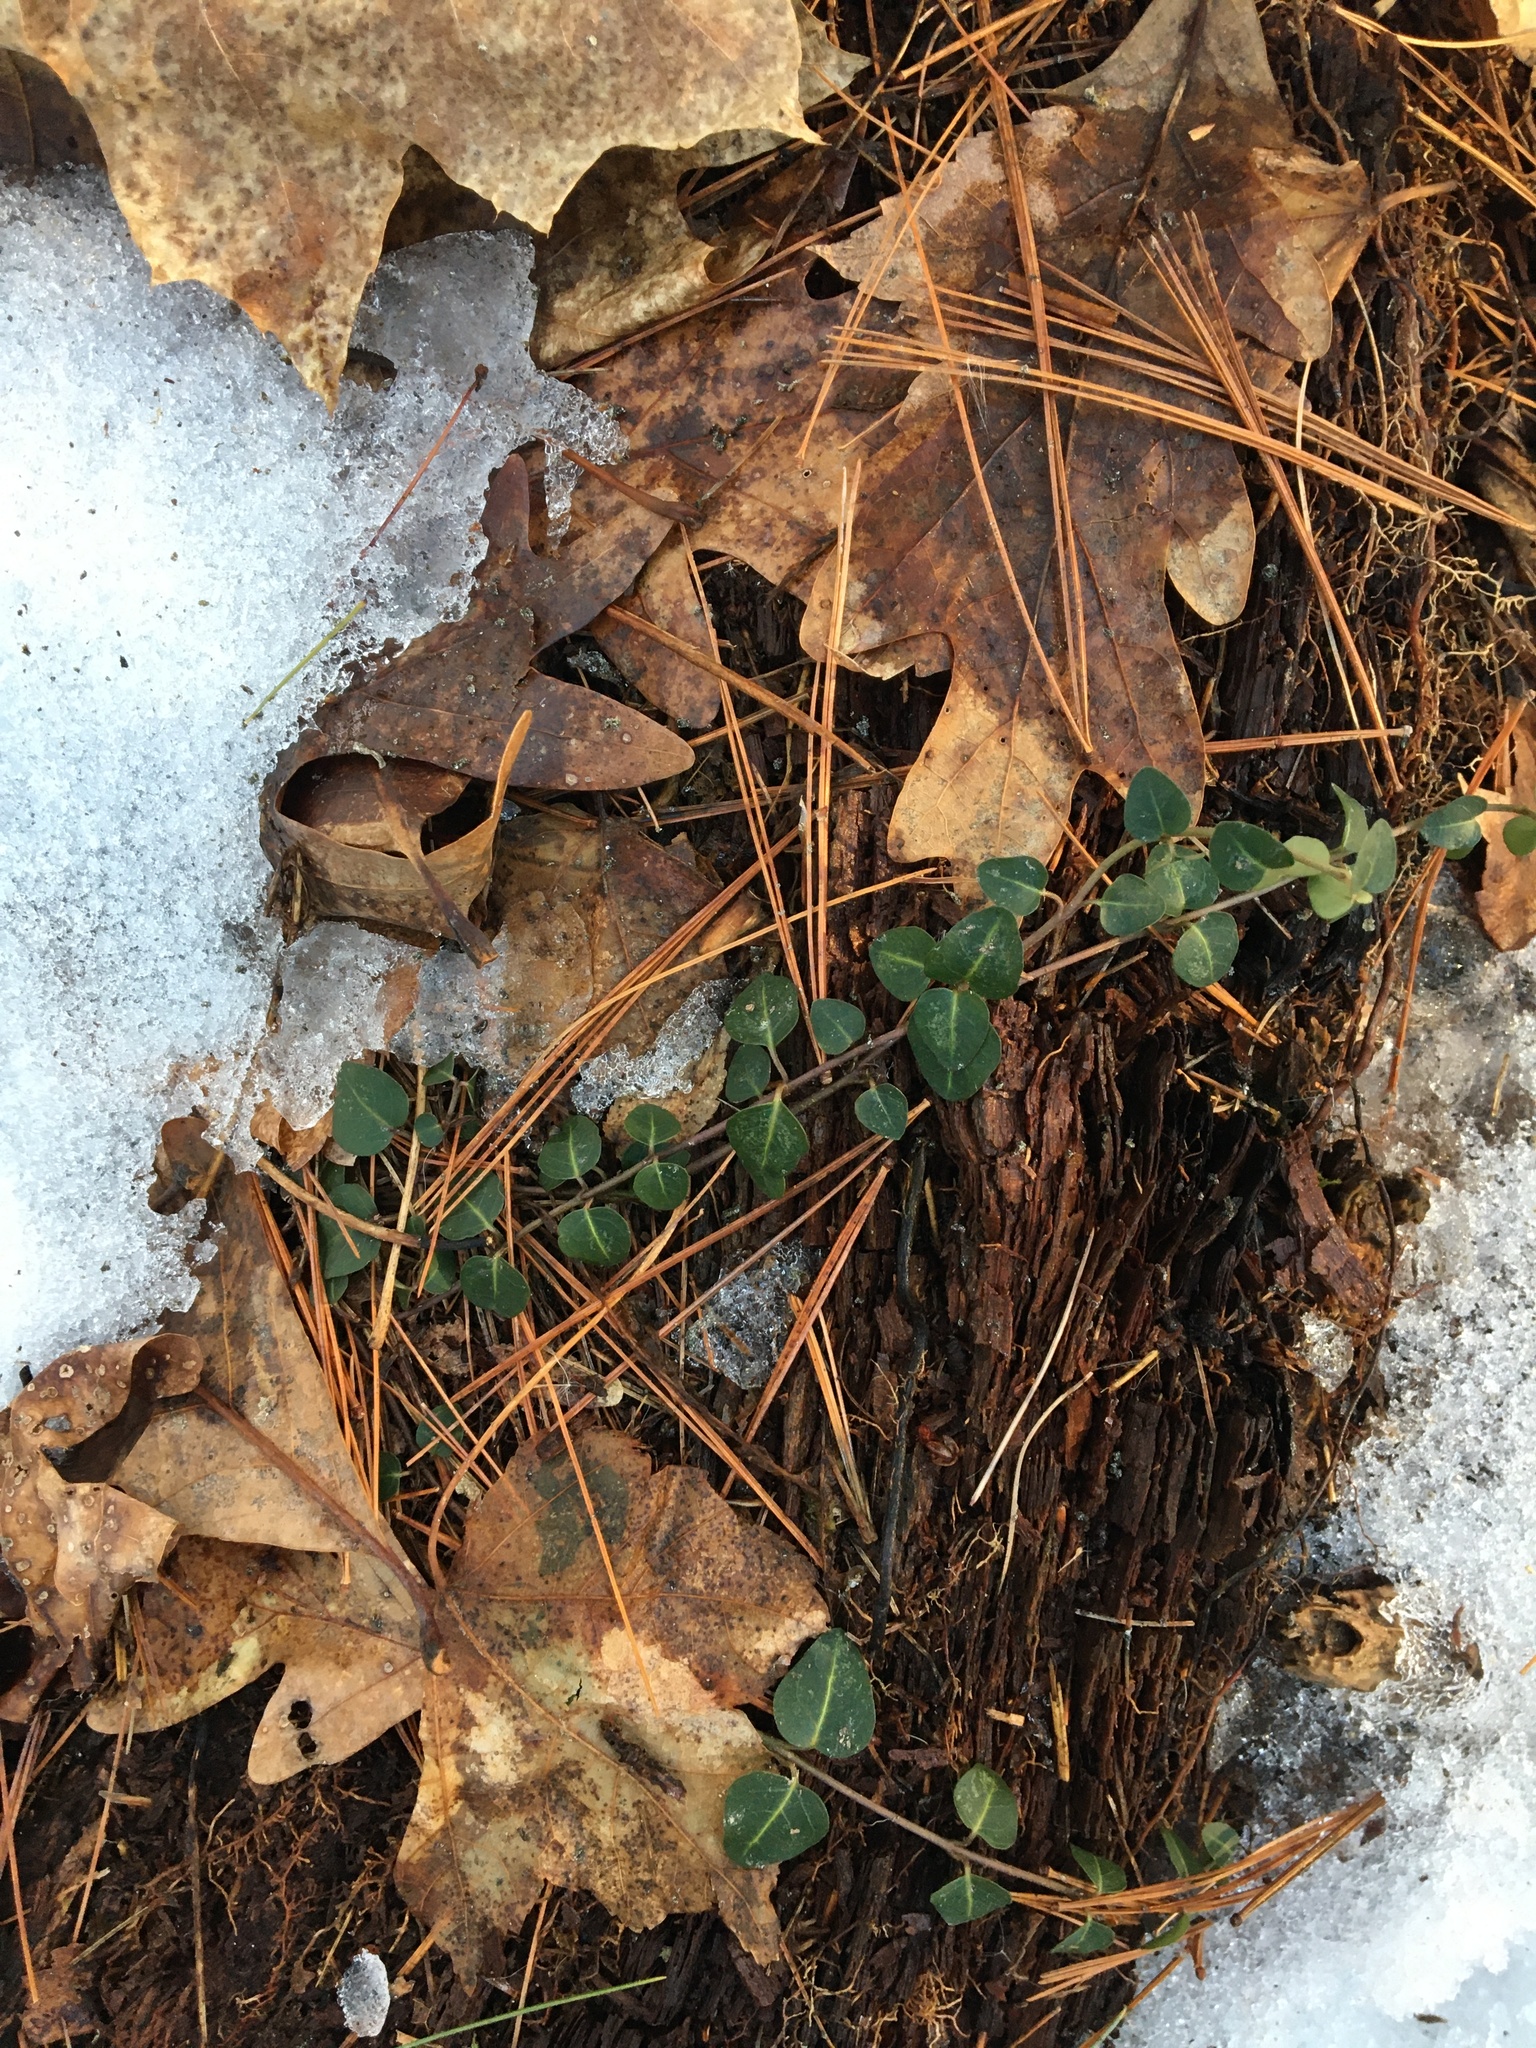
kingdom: Plantae
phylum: Tracheophyta
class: Magnoliopsida
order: Gentianales
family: Rubiaceae
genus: Mitchella
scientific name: Mitchella repens
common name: Partridge-berry
